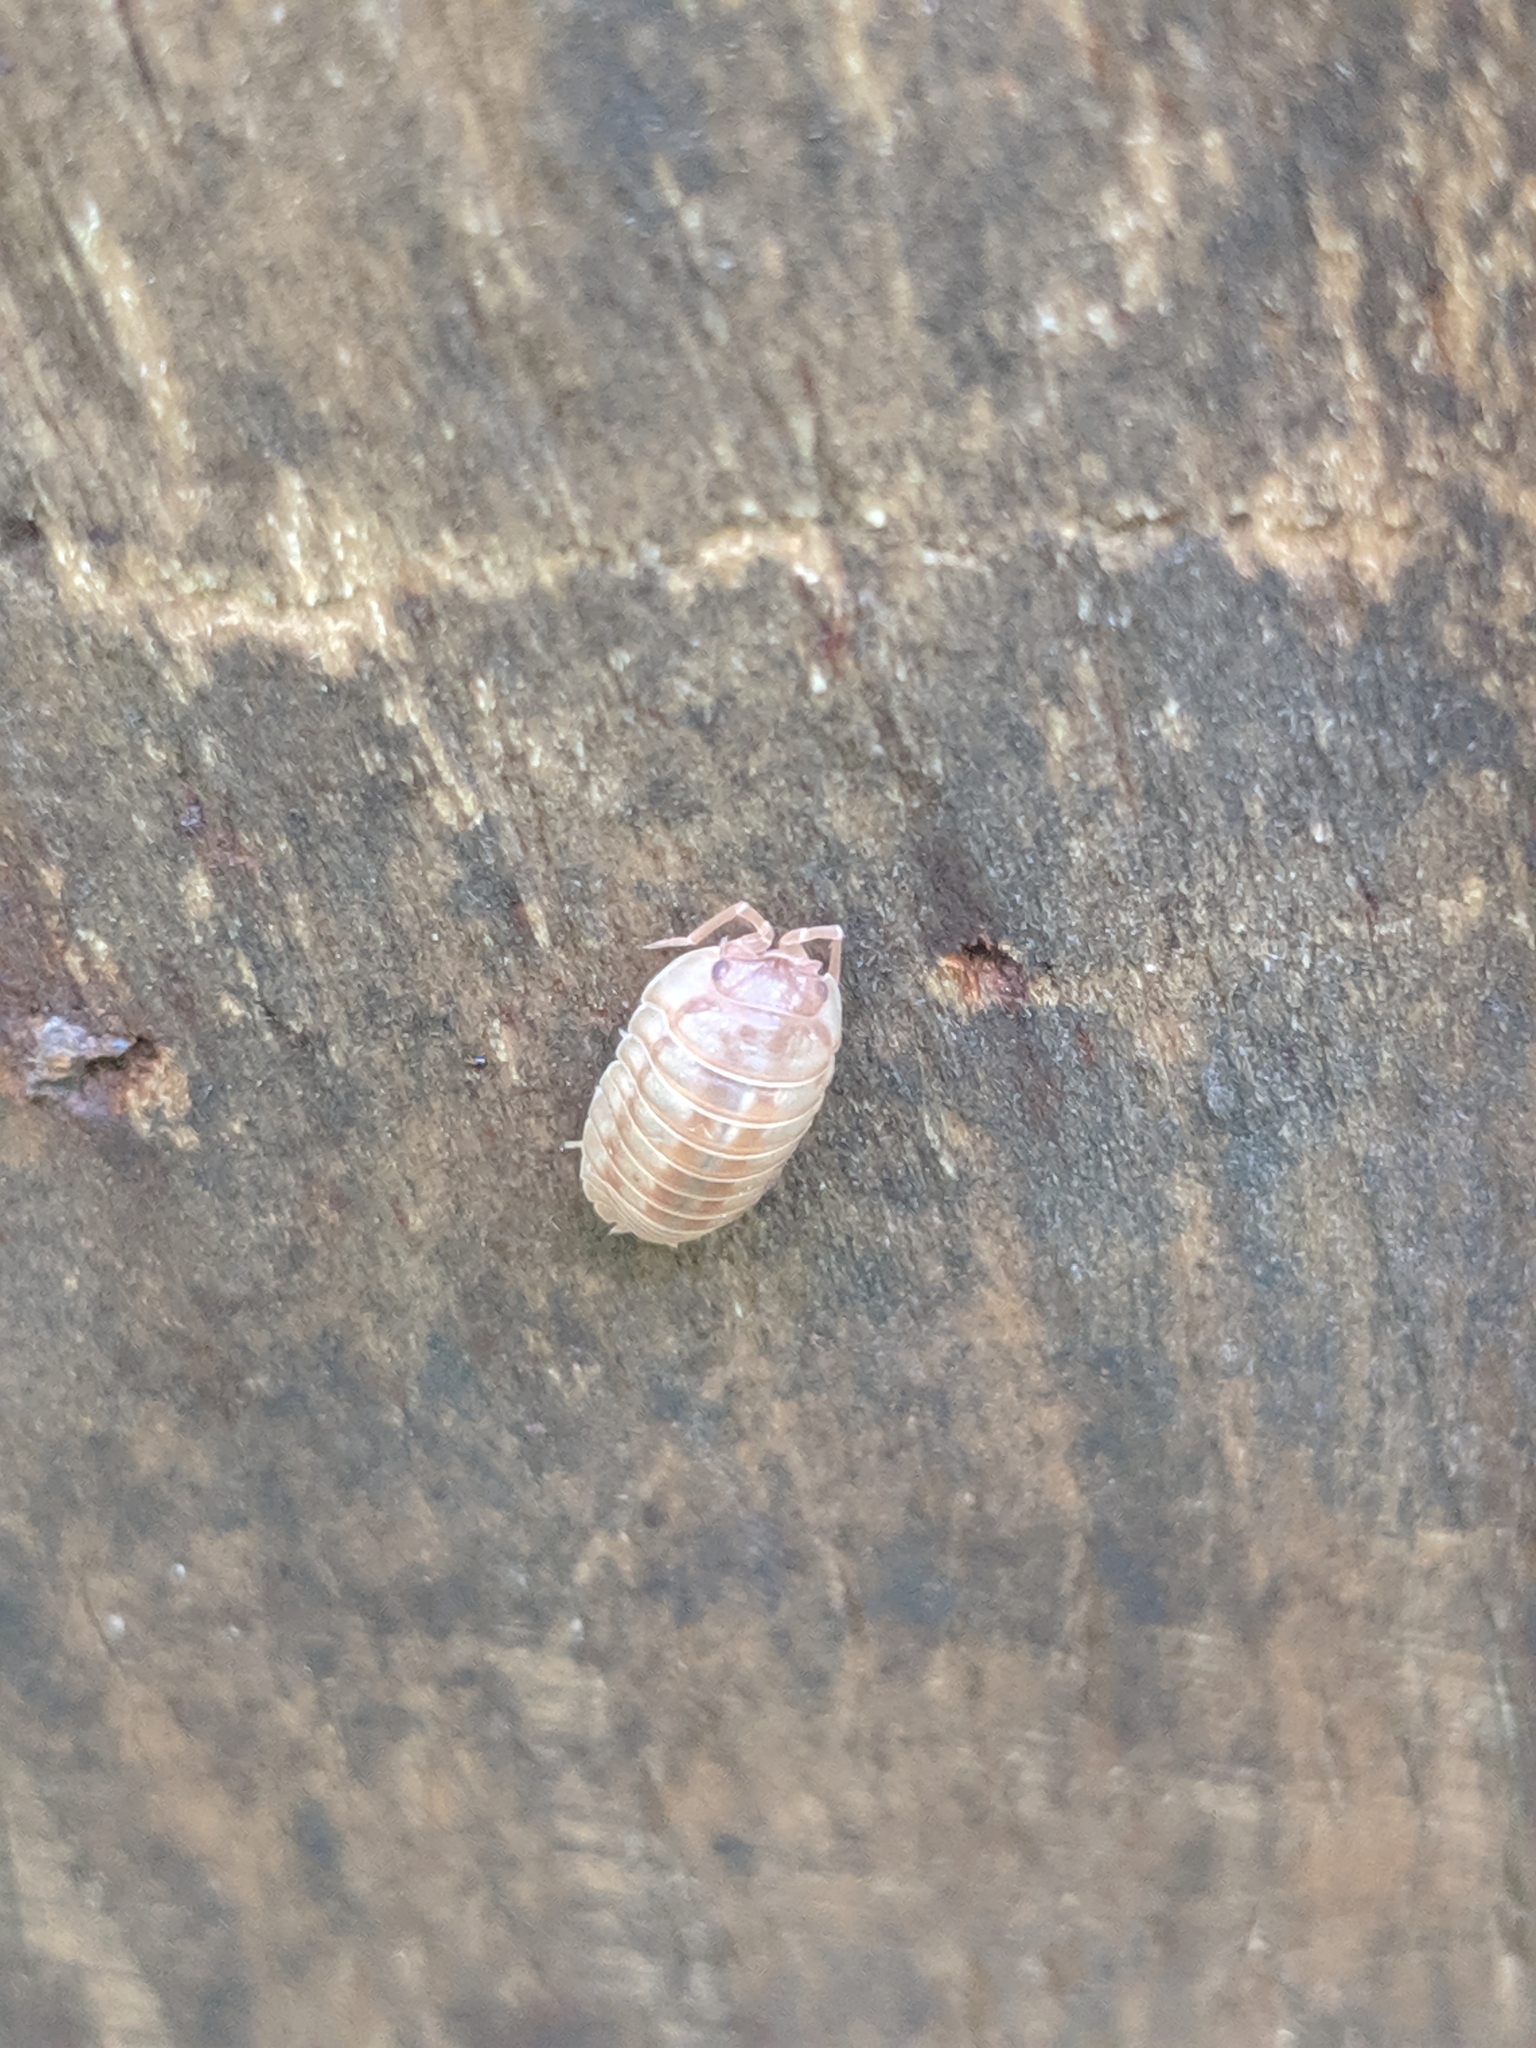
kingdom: Animalia
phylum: Arthropoda
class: Malacostraca
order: Isopoda
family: Armadillidiidae
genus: Armadillidium
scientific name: Armadillidium nasatum
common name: Isopod
